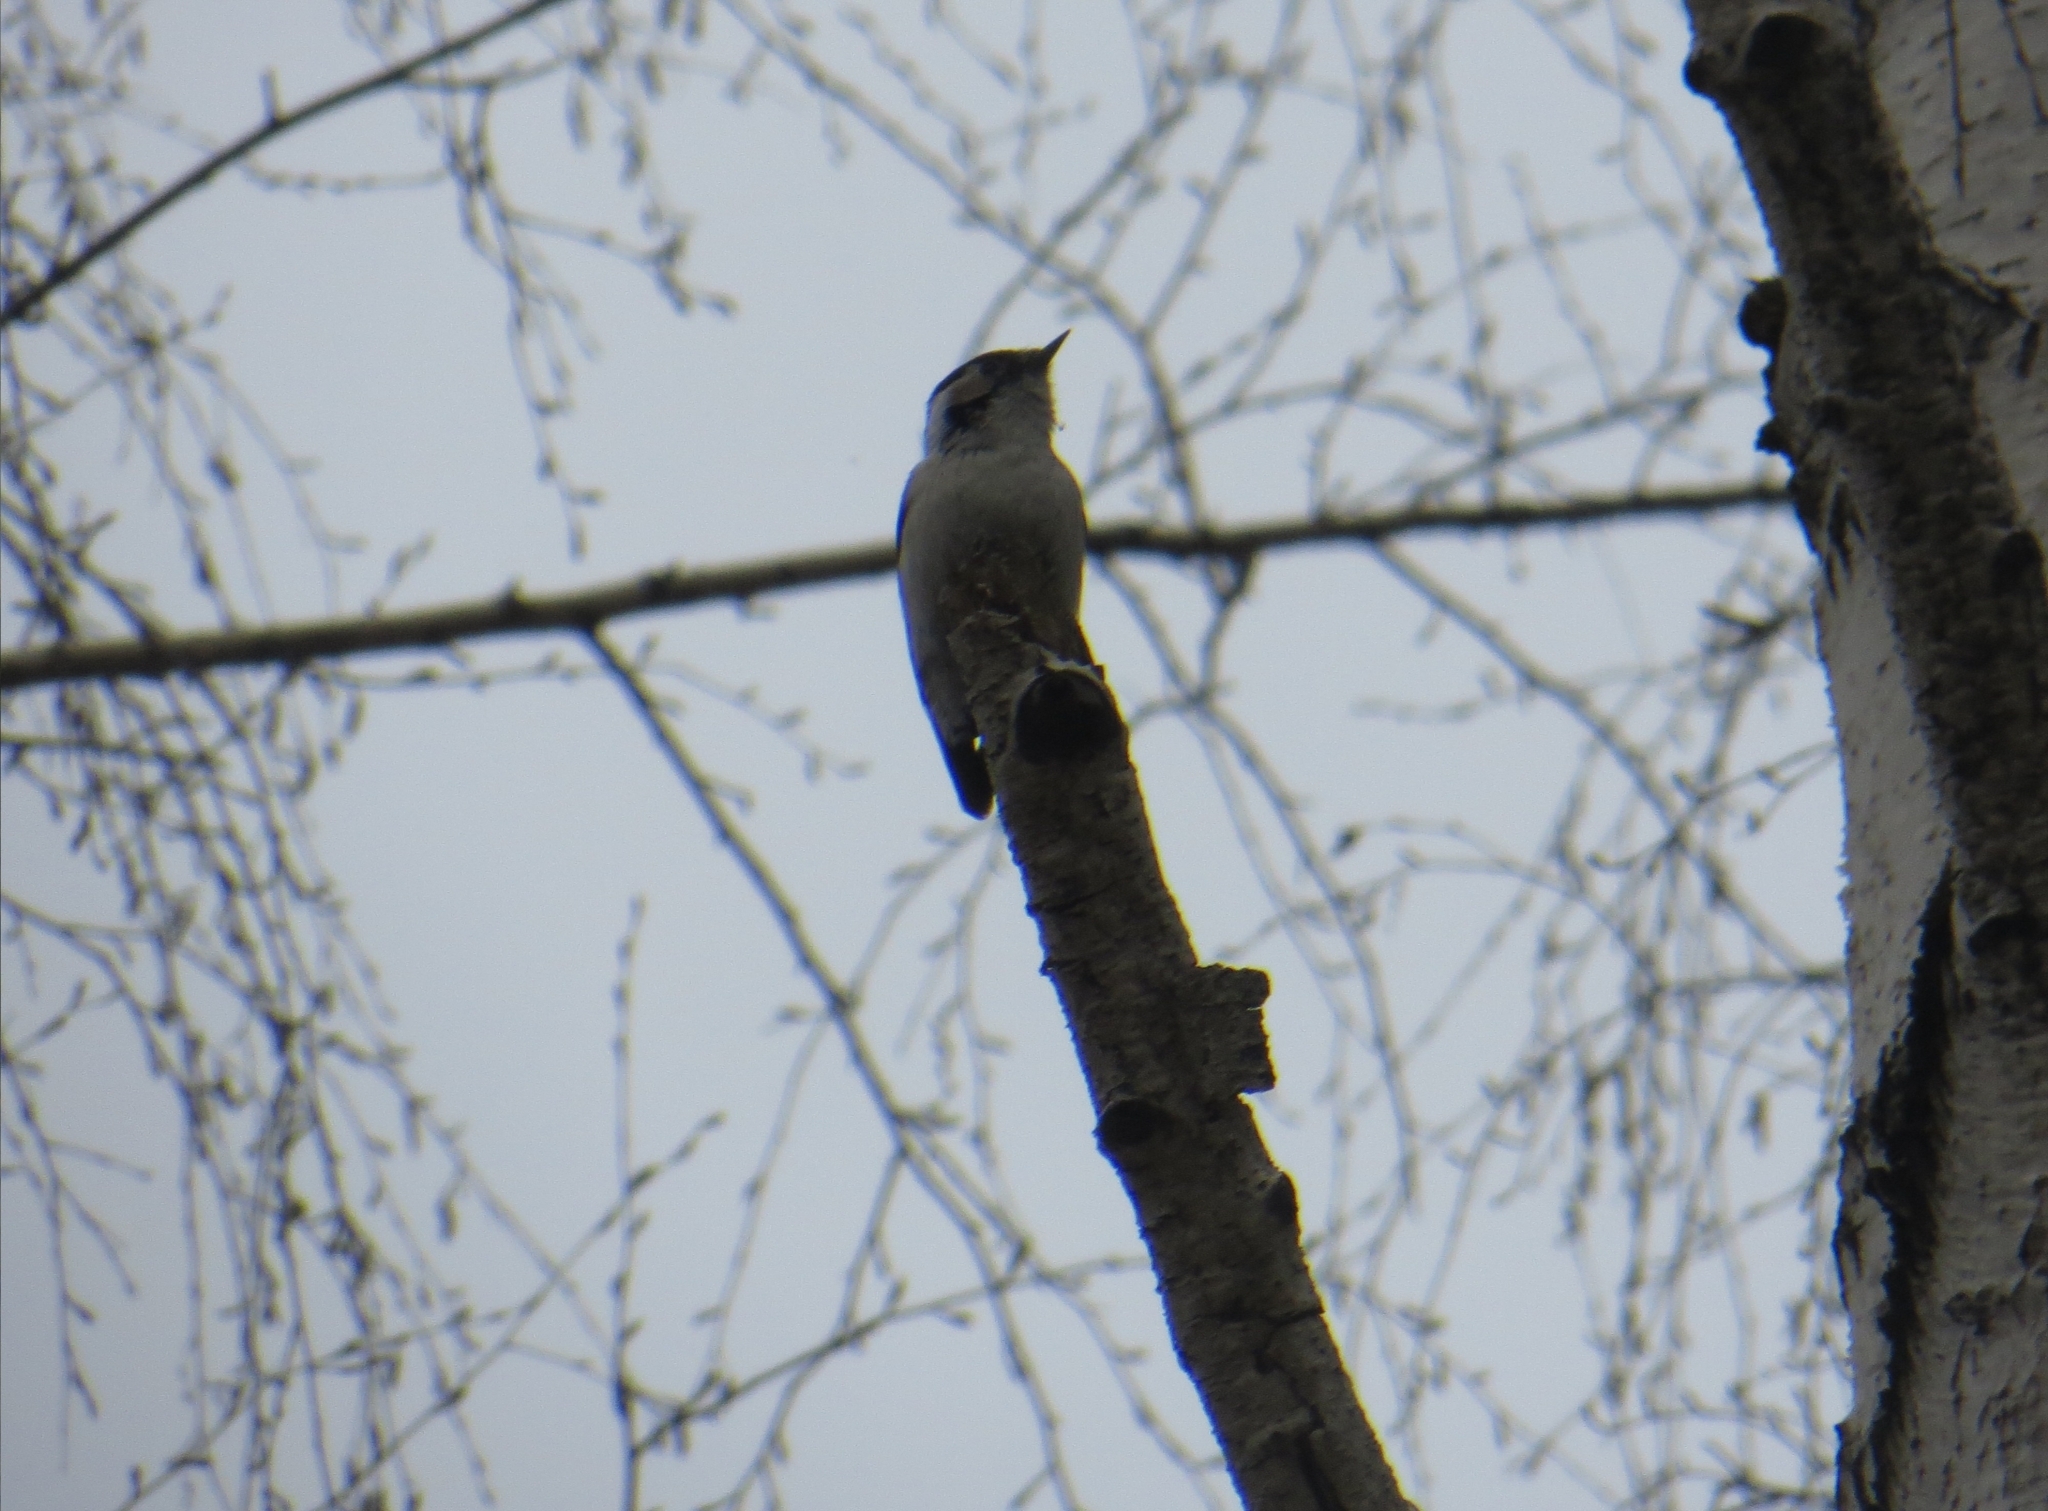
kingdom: Animalia
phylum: Chordata
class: Aves
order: Piciformes
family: Picidae
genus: Dryobates
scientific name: Dryobates minor
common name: Lesser spotted woodpecker
